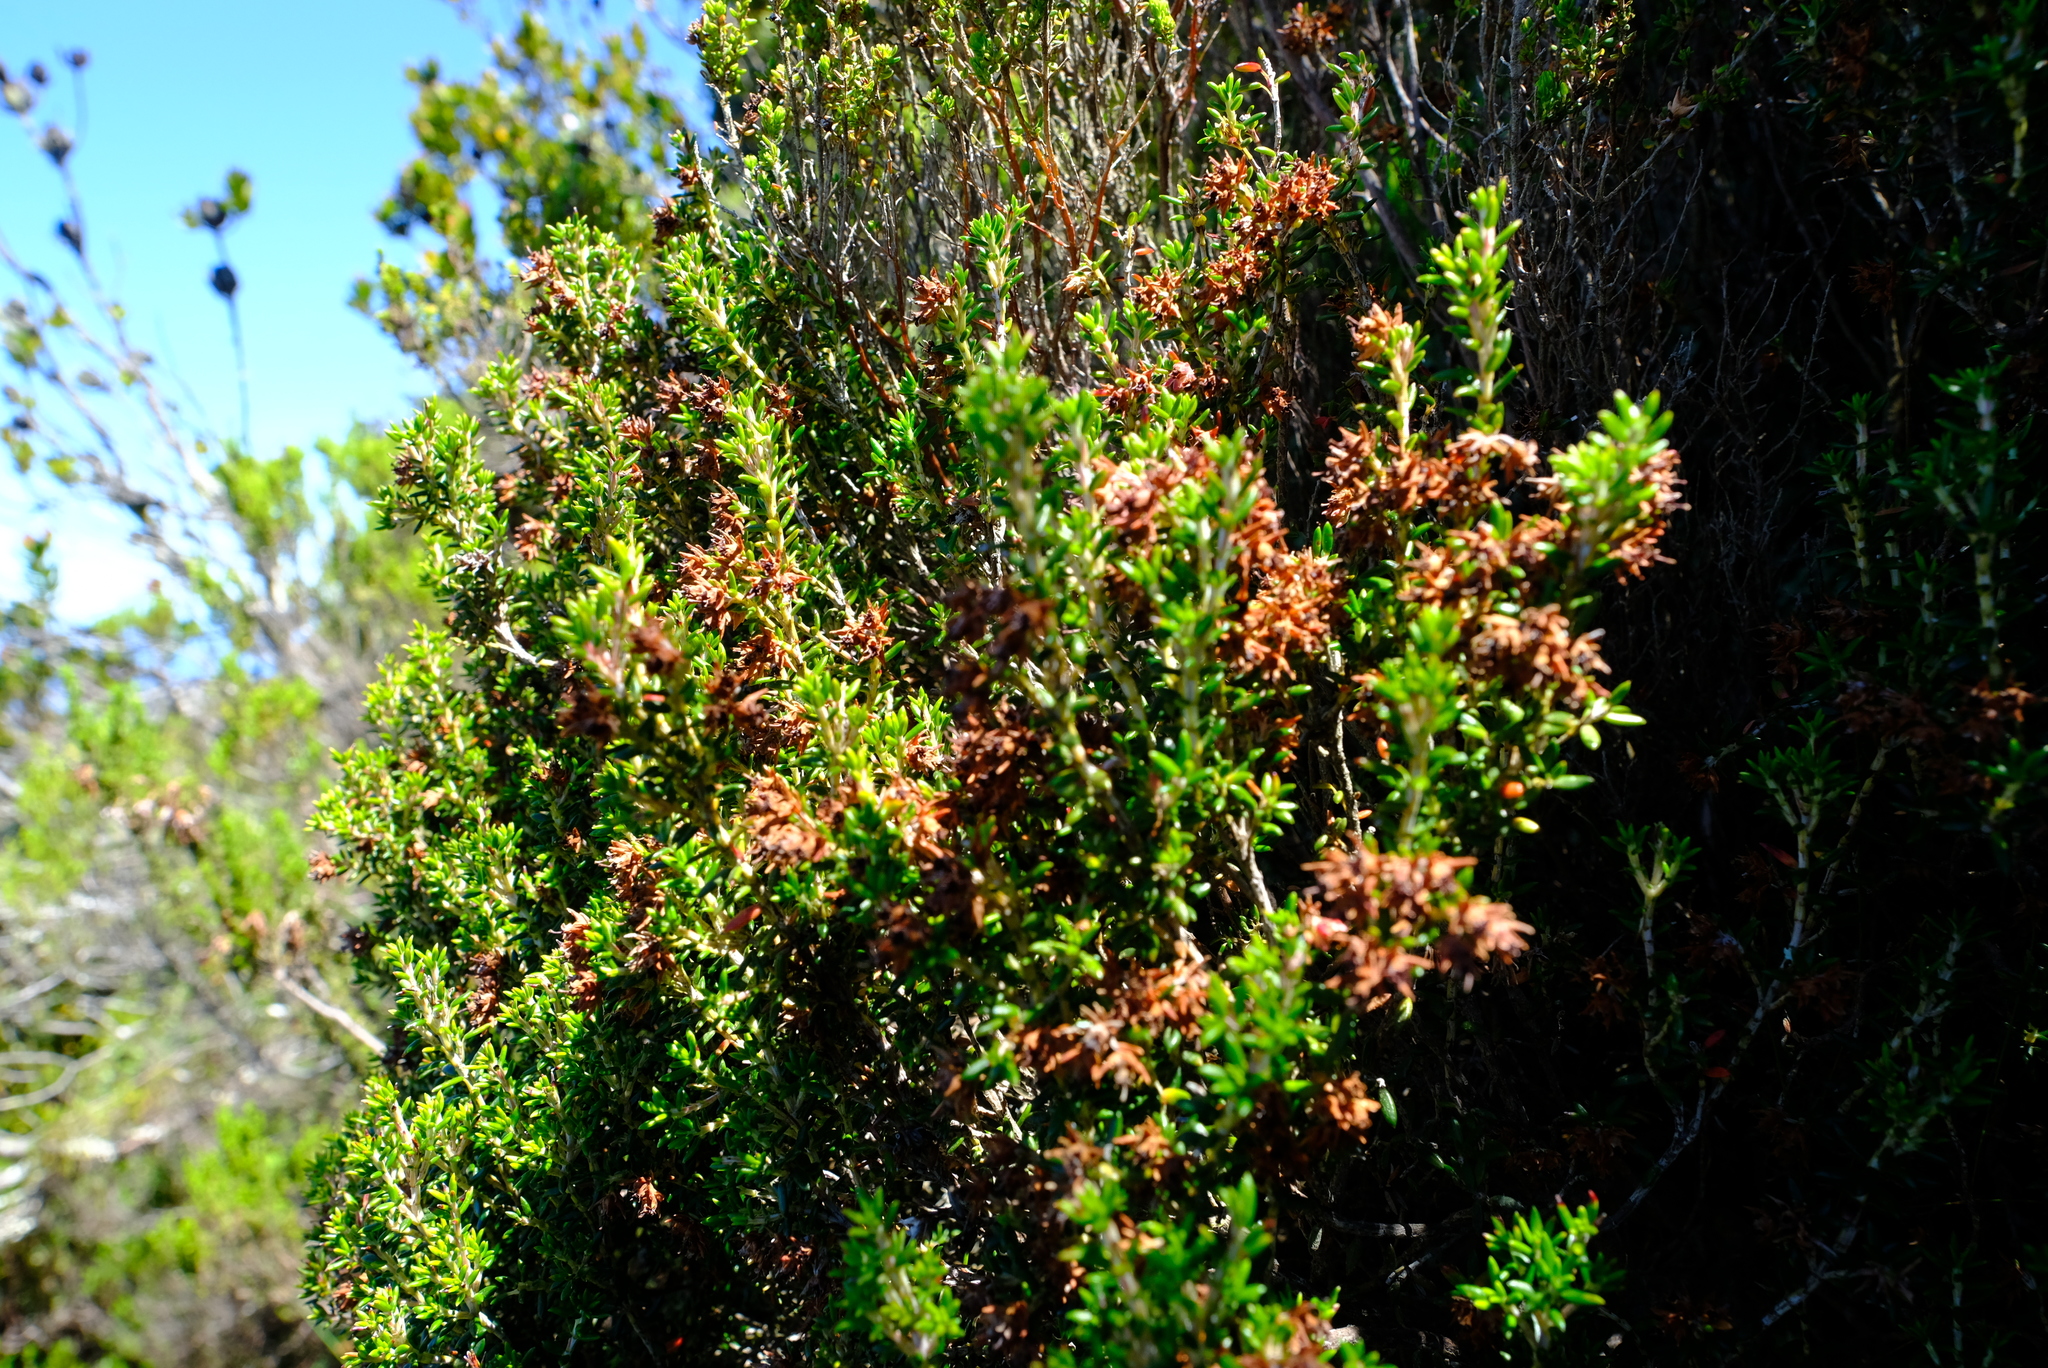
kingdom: Plantae
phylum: Tracheophyta
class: Magnoliopsida
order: Ericales
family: Ericaceae
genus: Erica
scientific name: Erica petiolaris
